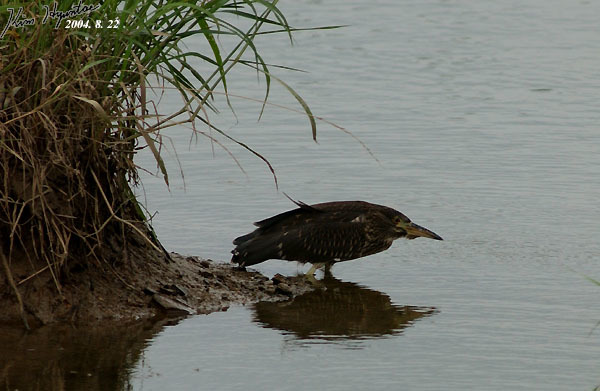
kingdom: Animalia
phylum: Chordata
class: Aves
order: Pelecaniformes
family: Ardeidae
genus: Nycticorax
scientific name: Nycticorax nycticorax
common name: Black-crowned night heron
